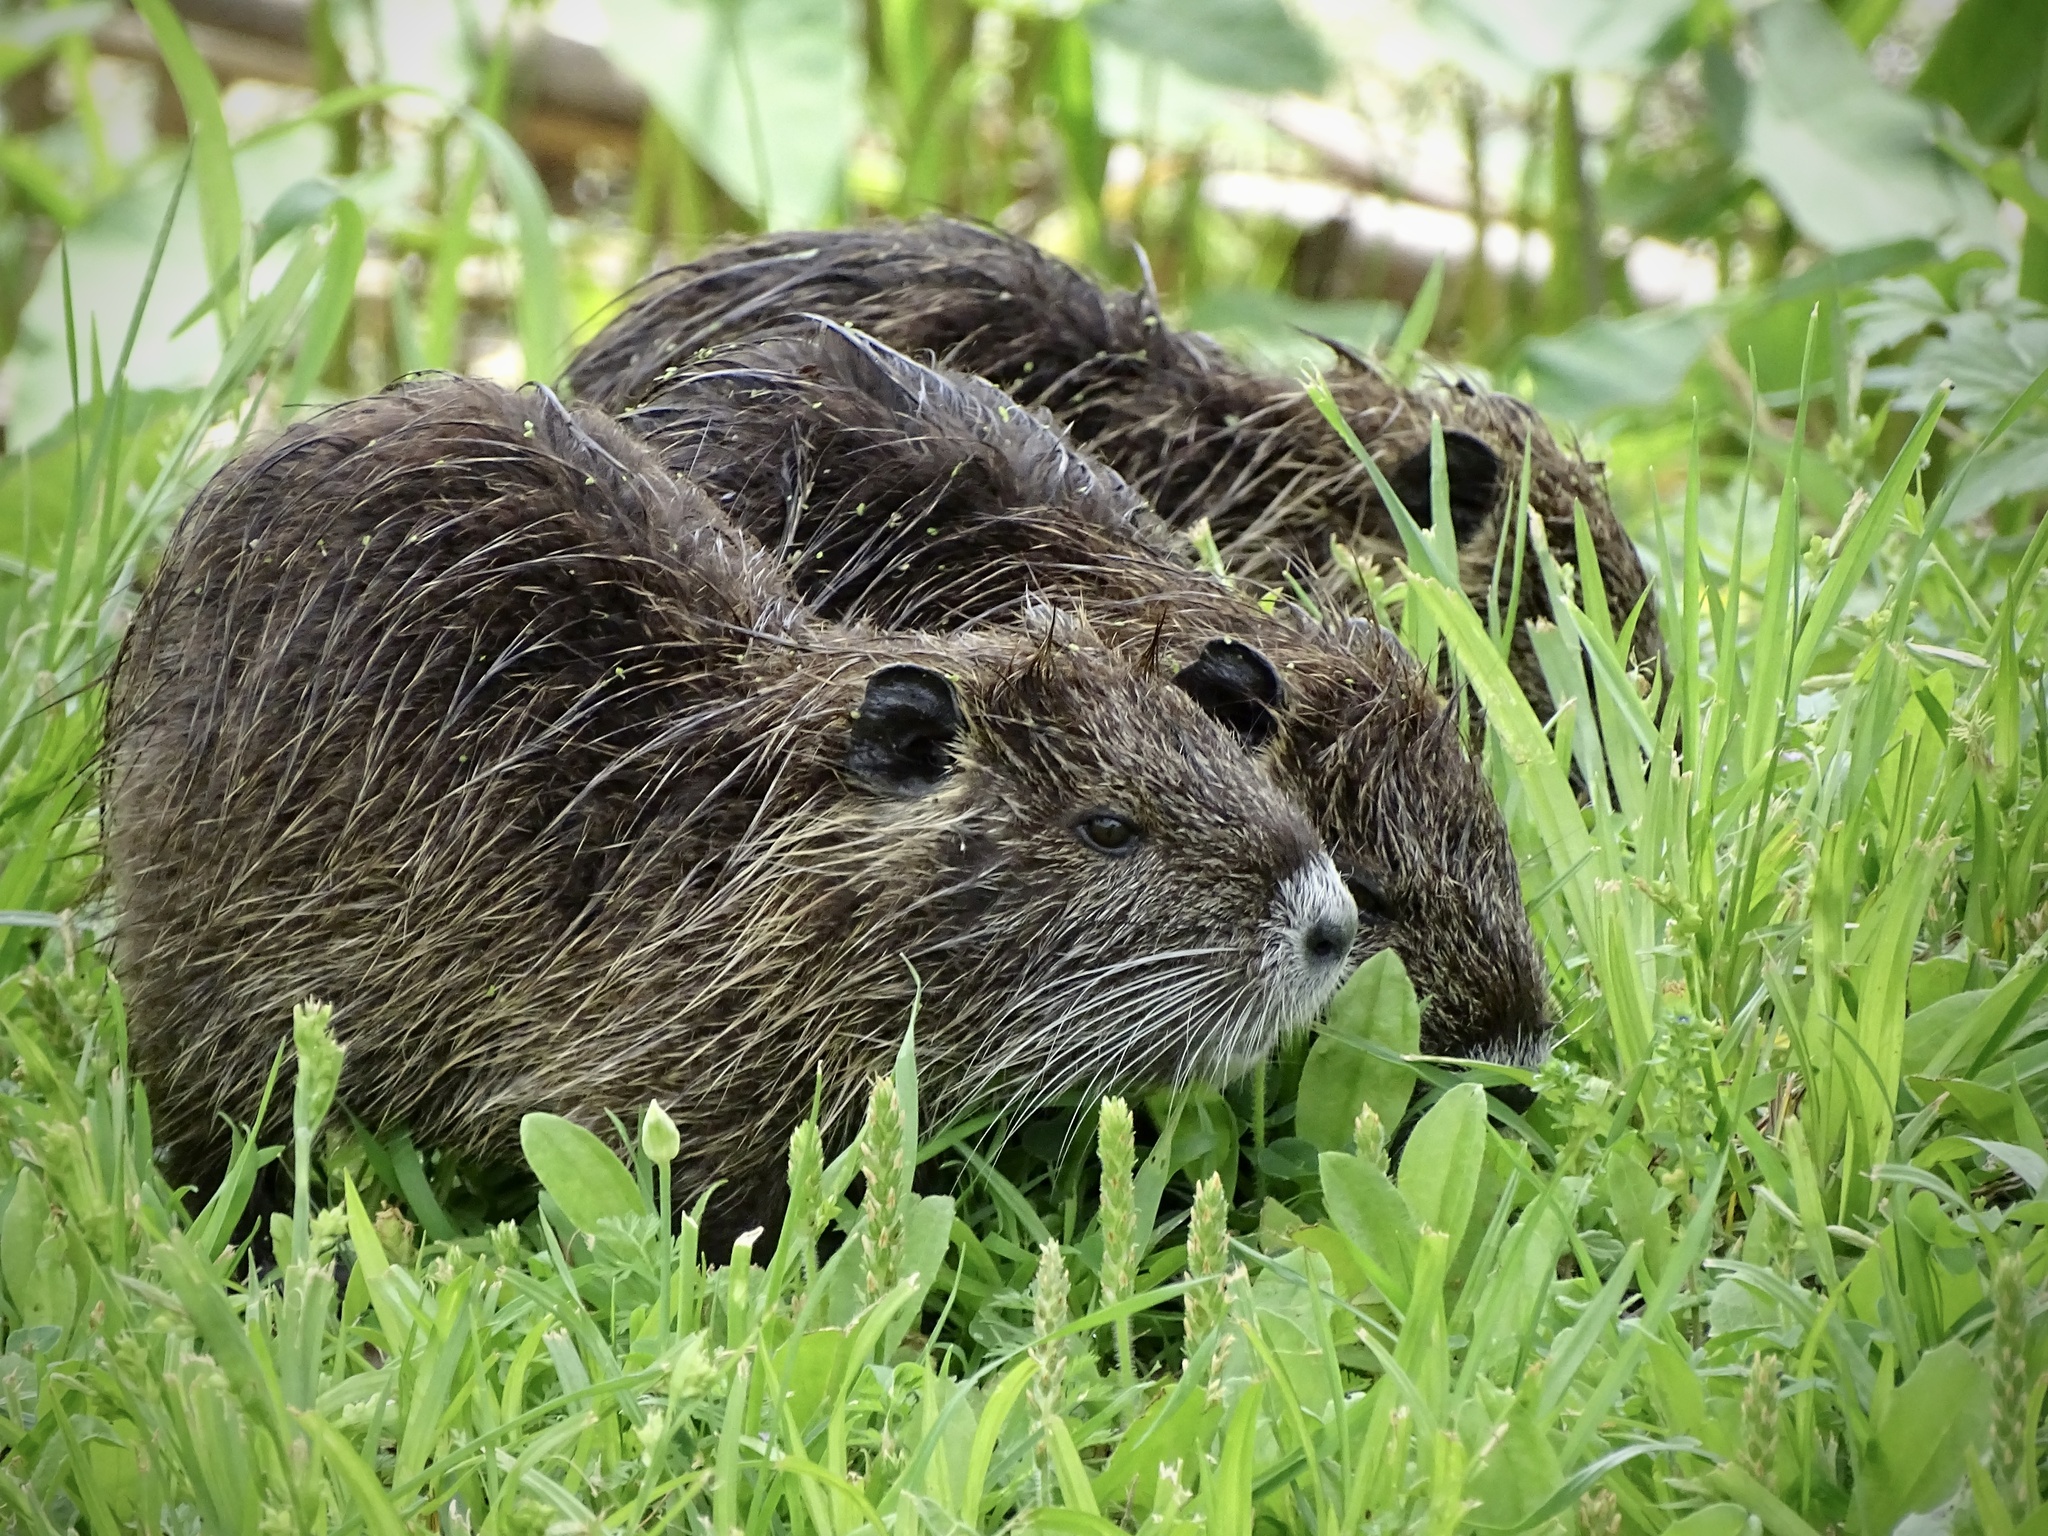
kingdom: Animalia
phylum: Chordata
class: Mammalia
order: Rodentia
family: Myocastoridae
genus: Myocastor
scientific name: Myocastor coypus
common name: Coypu
